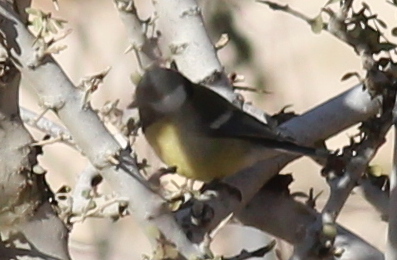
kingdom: Animalia
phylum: Chordata
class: Aves
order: Passeriformes
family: Paridae
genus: Parus
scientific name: Parus major
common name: Great tit
